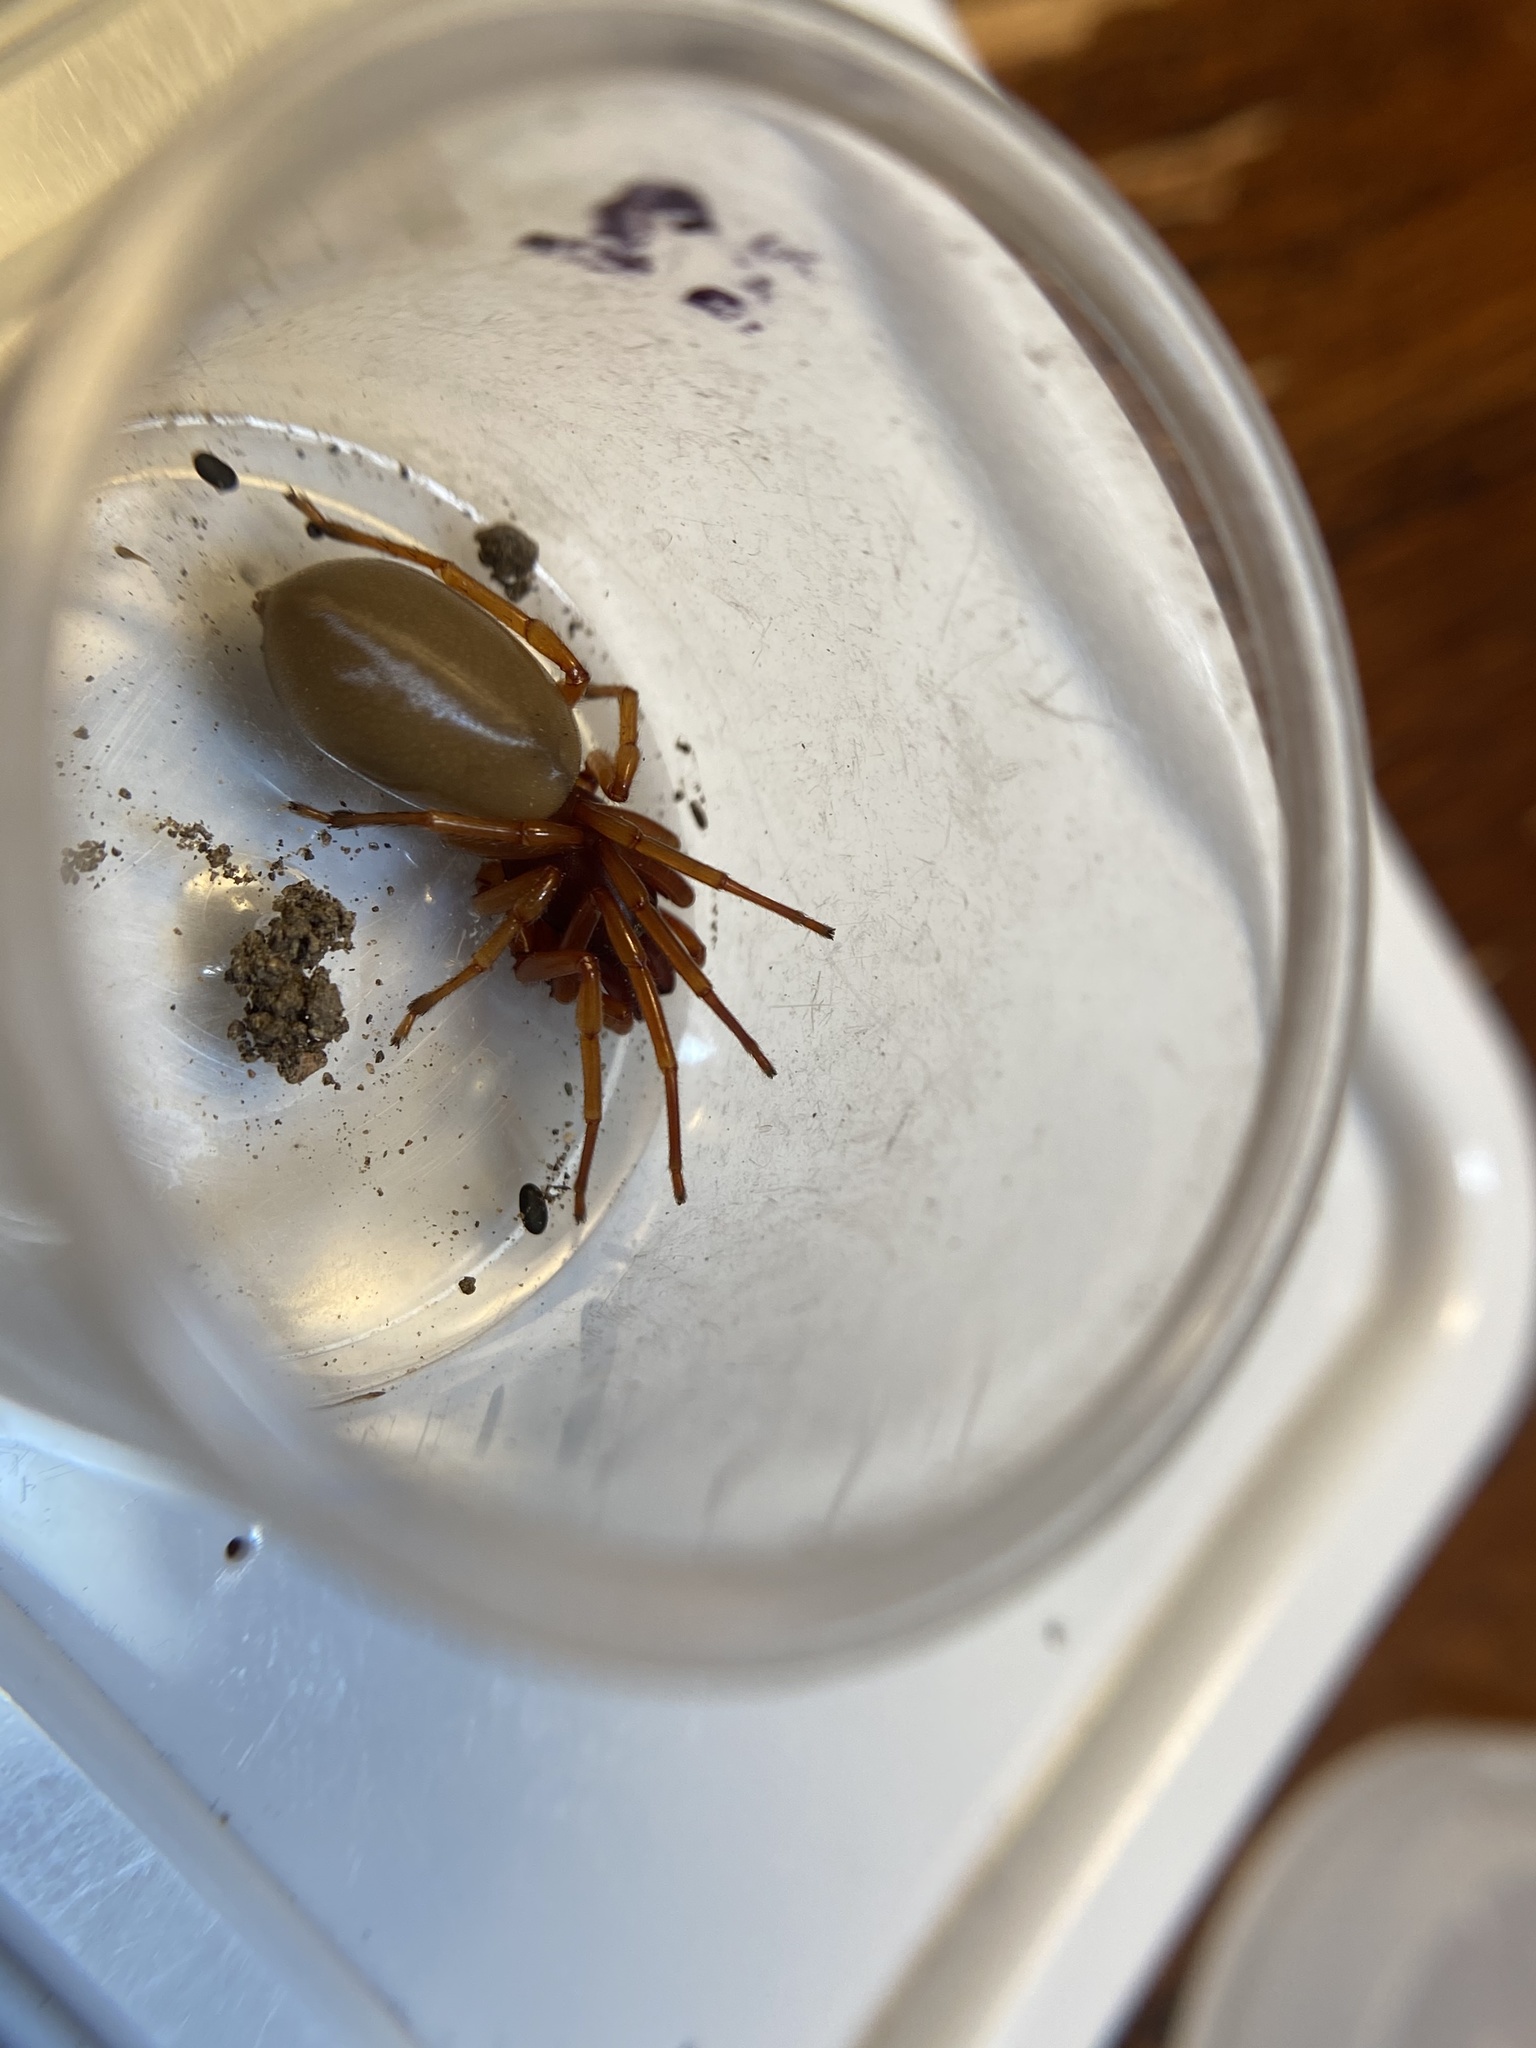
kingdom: Animalia
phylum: Arthropoda
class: Arachnida
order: Araneae
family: Dysderidae
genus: Dysdera
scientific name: Dysdera crocata
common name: Woodlouse spider
